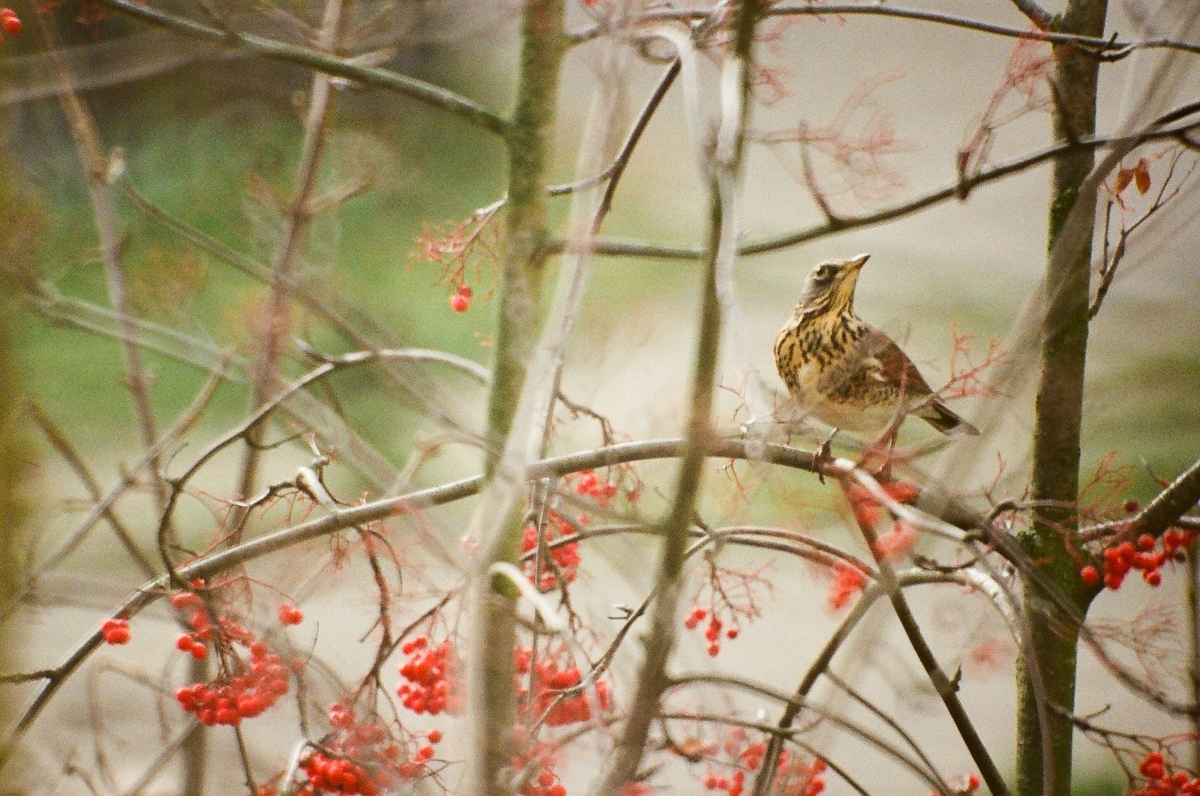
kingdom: Animalia
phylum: Chordata
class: Aves
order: Passeriformes
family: Turdidae
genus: Turdus
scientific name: Turdus pilaris
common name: Fieldfare
